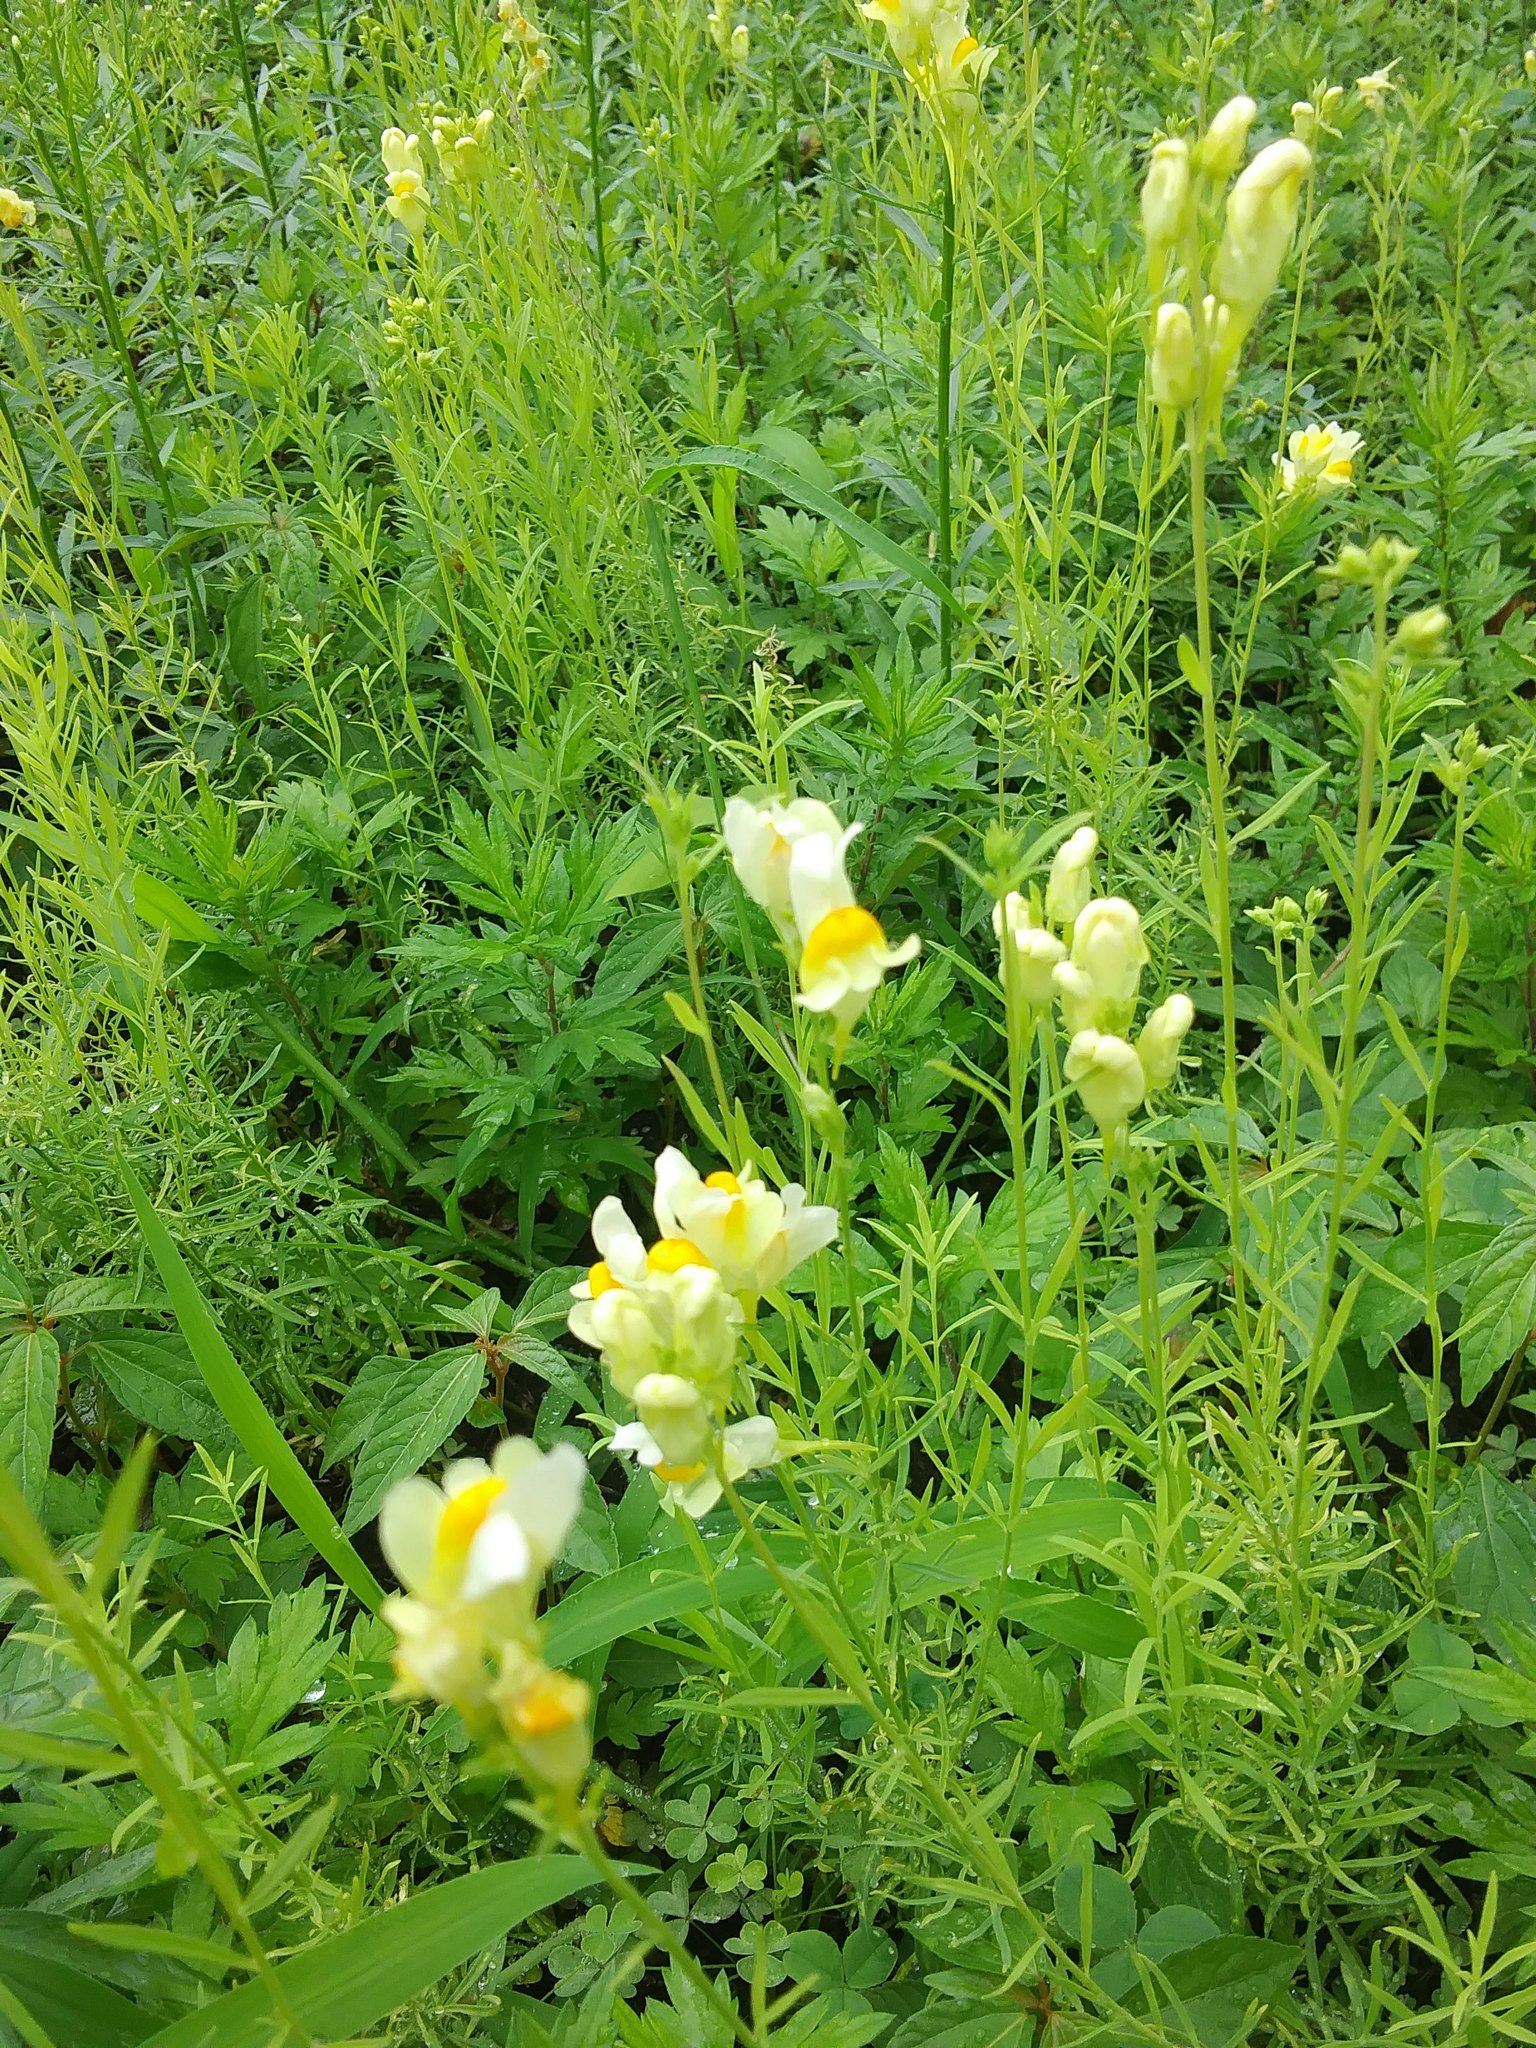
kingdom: Plantae
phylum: Tracheophyta
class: Magnoliopsida
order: Lamiales
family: Plantaginaceae
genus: Linaria
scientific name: Linaria vulgaris
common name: Butter and eggs
